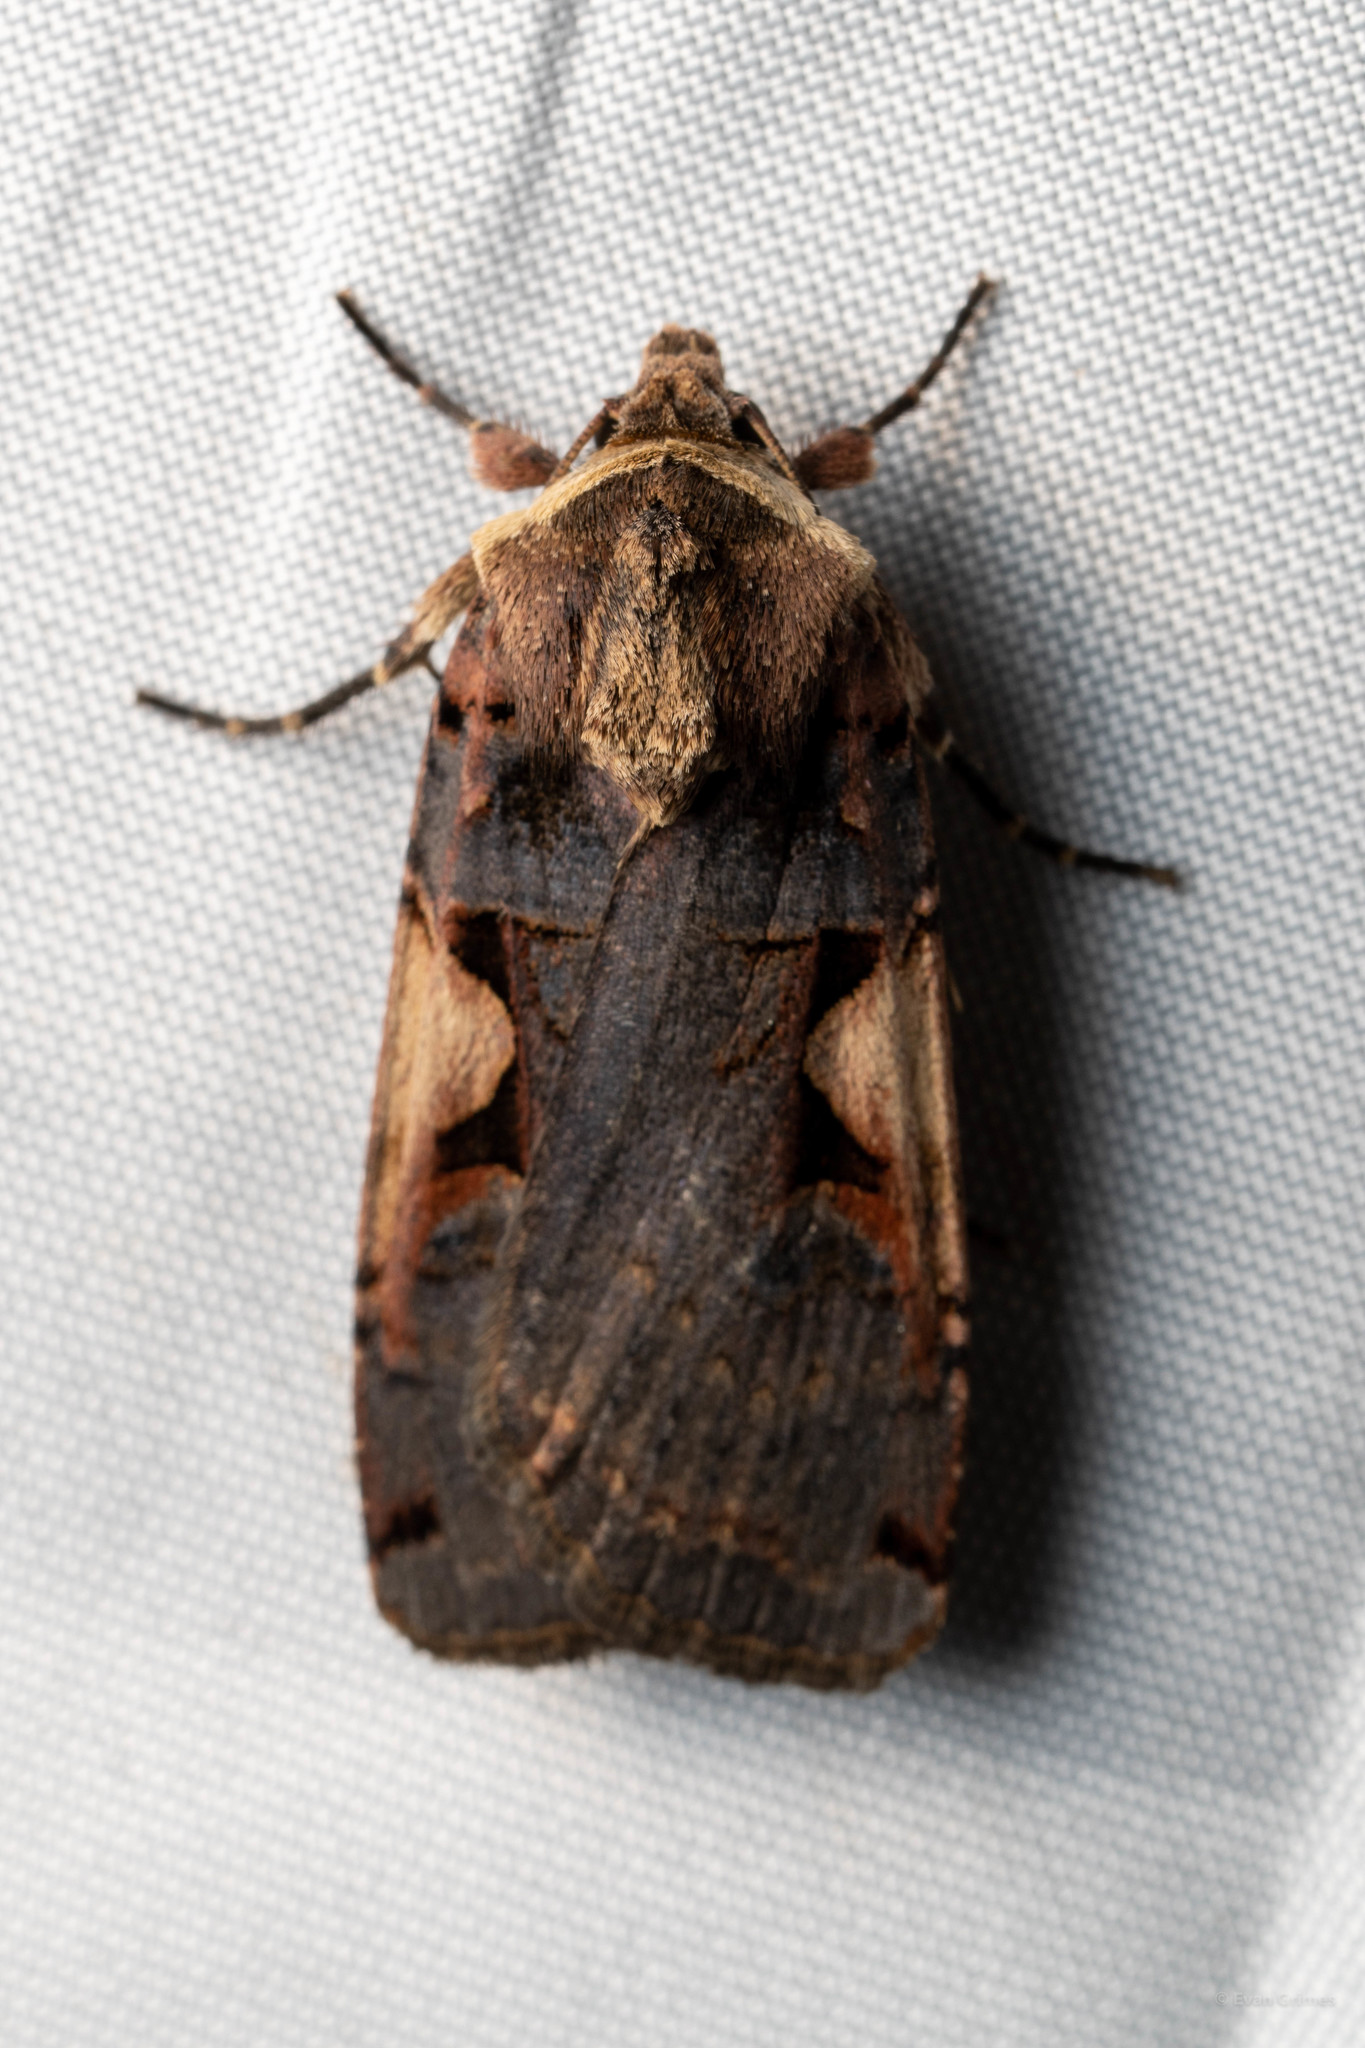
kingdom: Animalia
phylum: Arthropoda
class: Insecta
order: Lepidoptera
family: Noctuidae
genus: Xestia
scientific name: Xestia dolosa
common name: Cutworm moth
